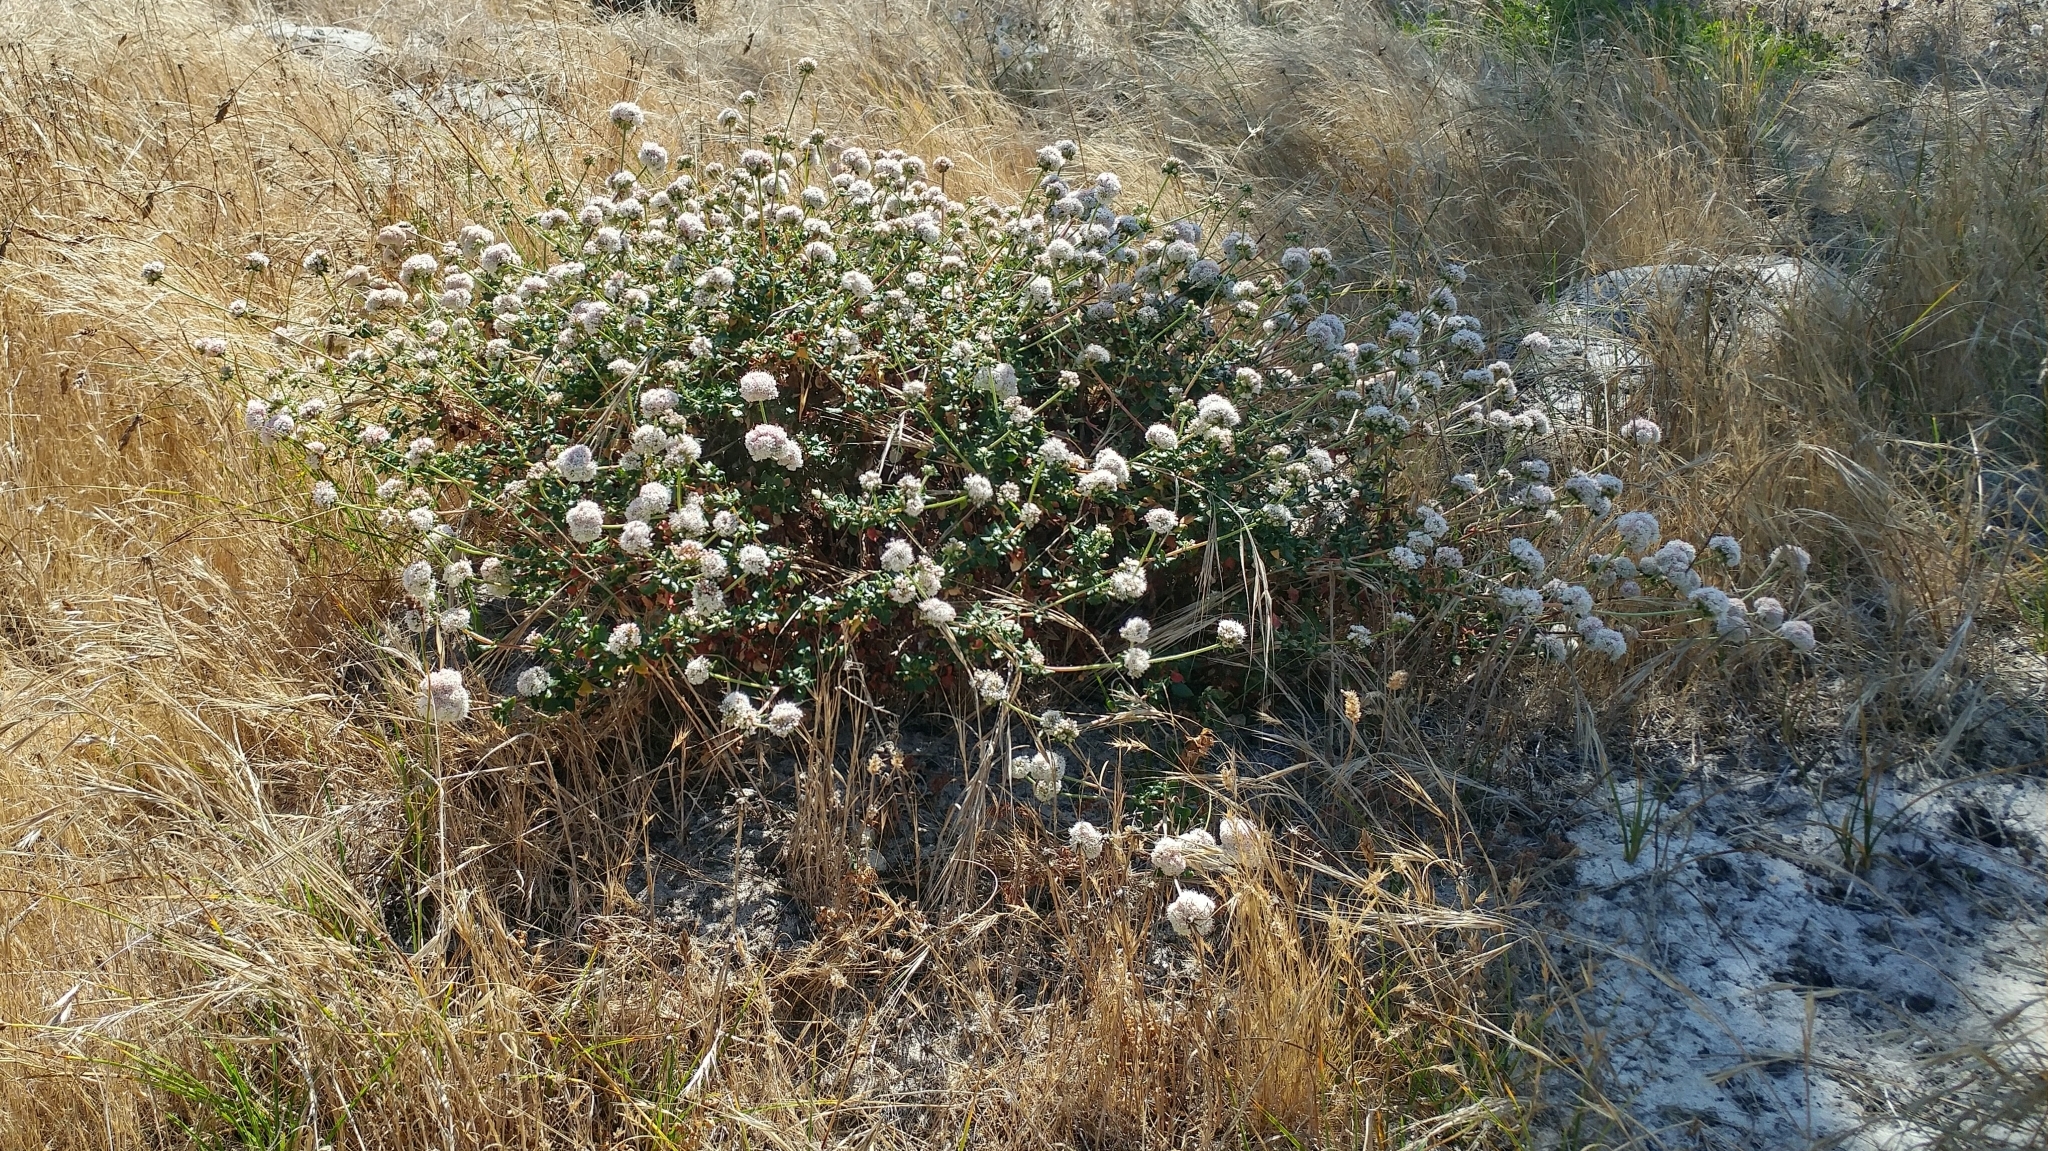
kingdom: Plantae
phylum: Tracheophyta
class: Magnoliopsida
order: Caryophyllales
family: Polygonaceae
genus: Eriogonum
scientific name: Eriogonum parvifolium
